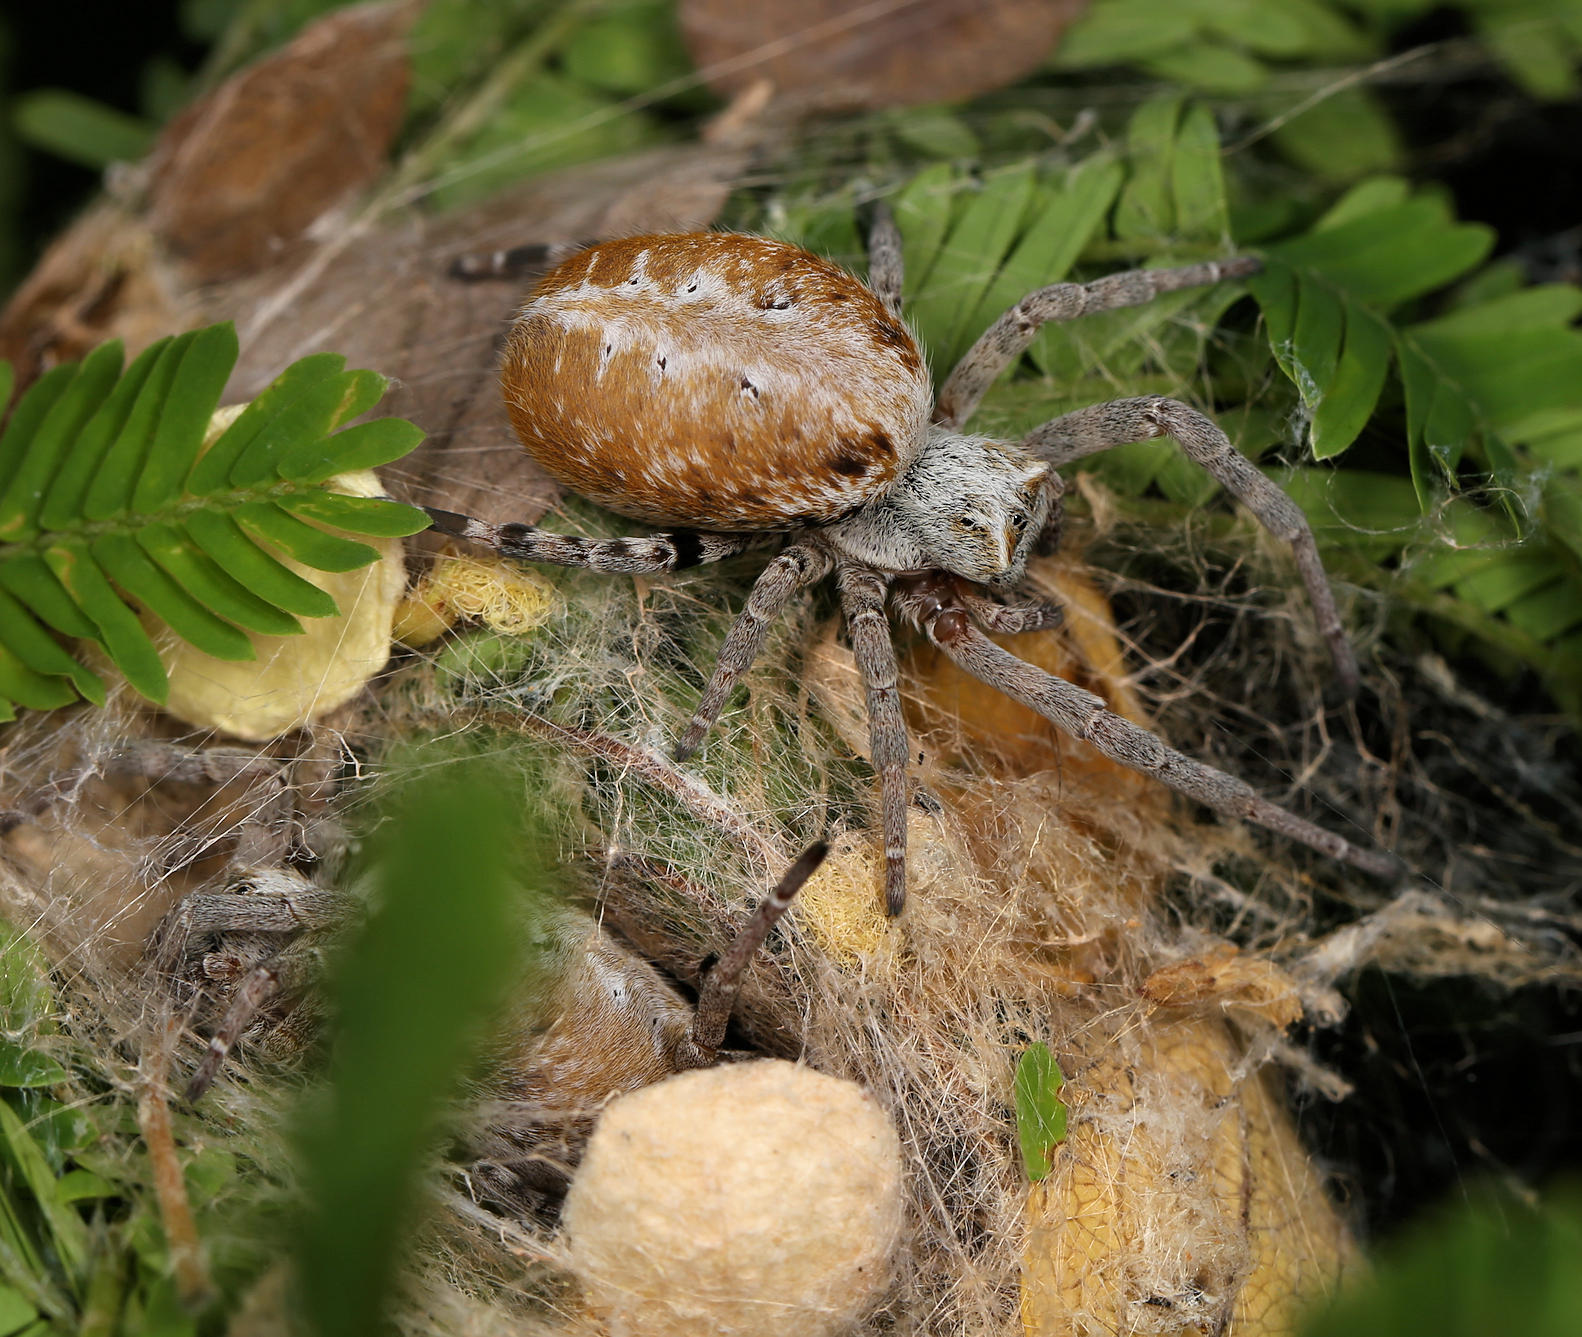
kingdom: Animalia
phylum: Arthropoda
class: Arachnida
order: Araneae
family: Eresidae
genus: Stegodyphus
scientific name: Stegodyphus dumicola
